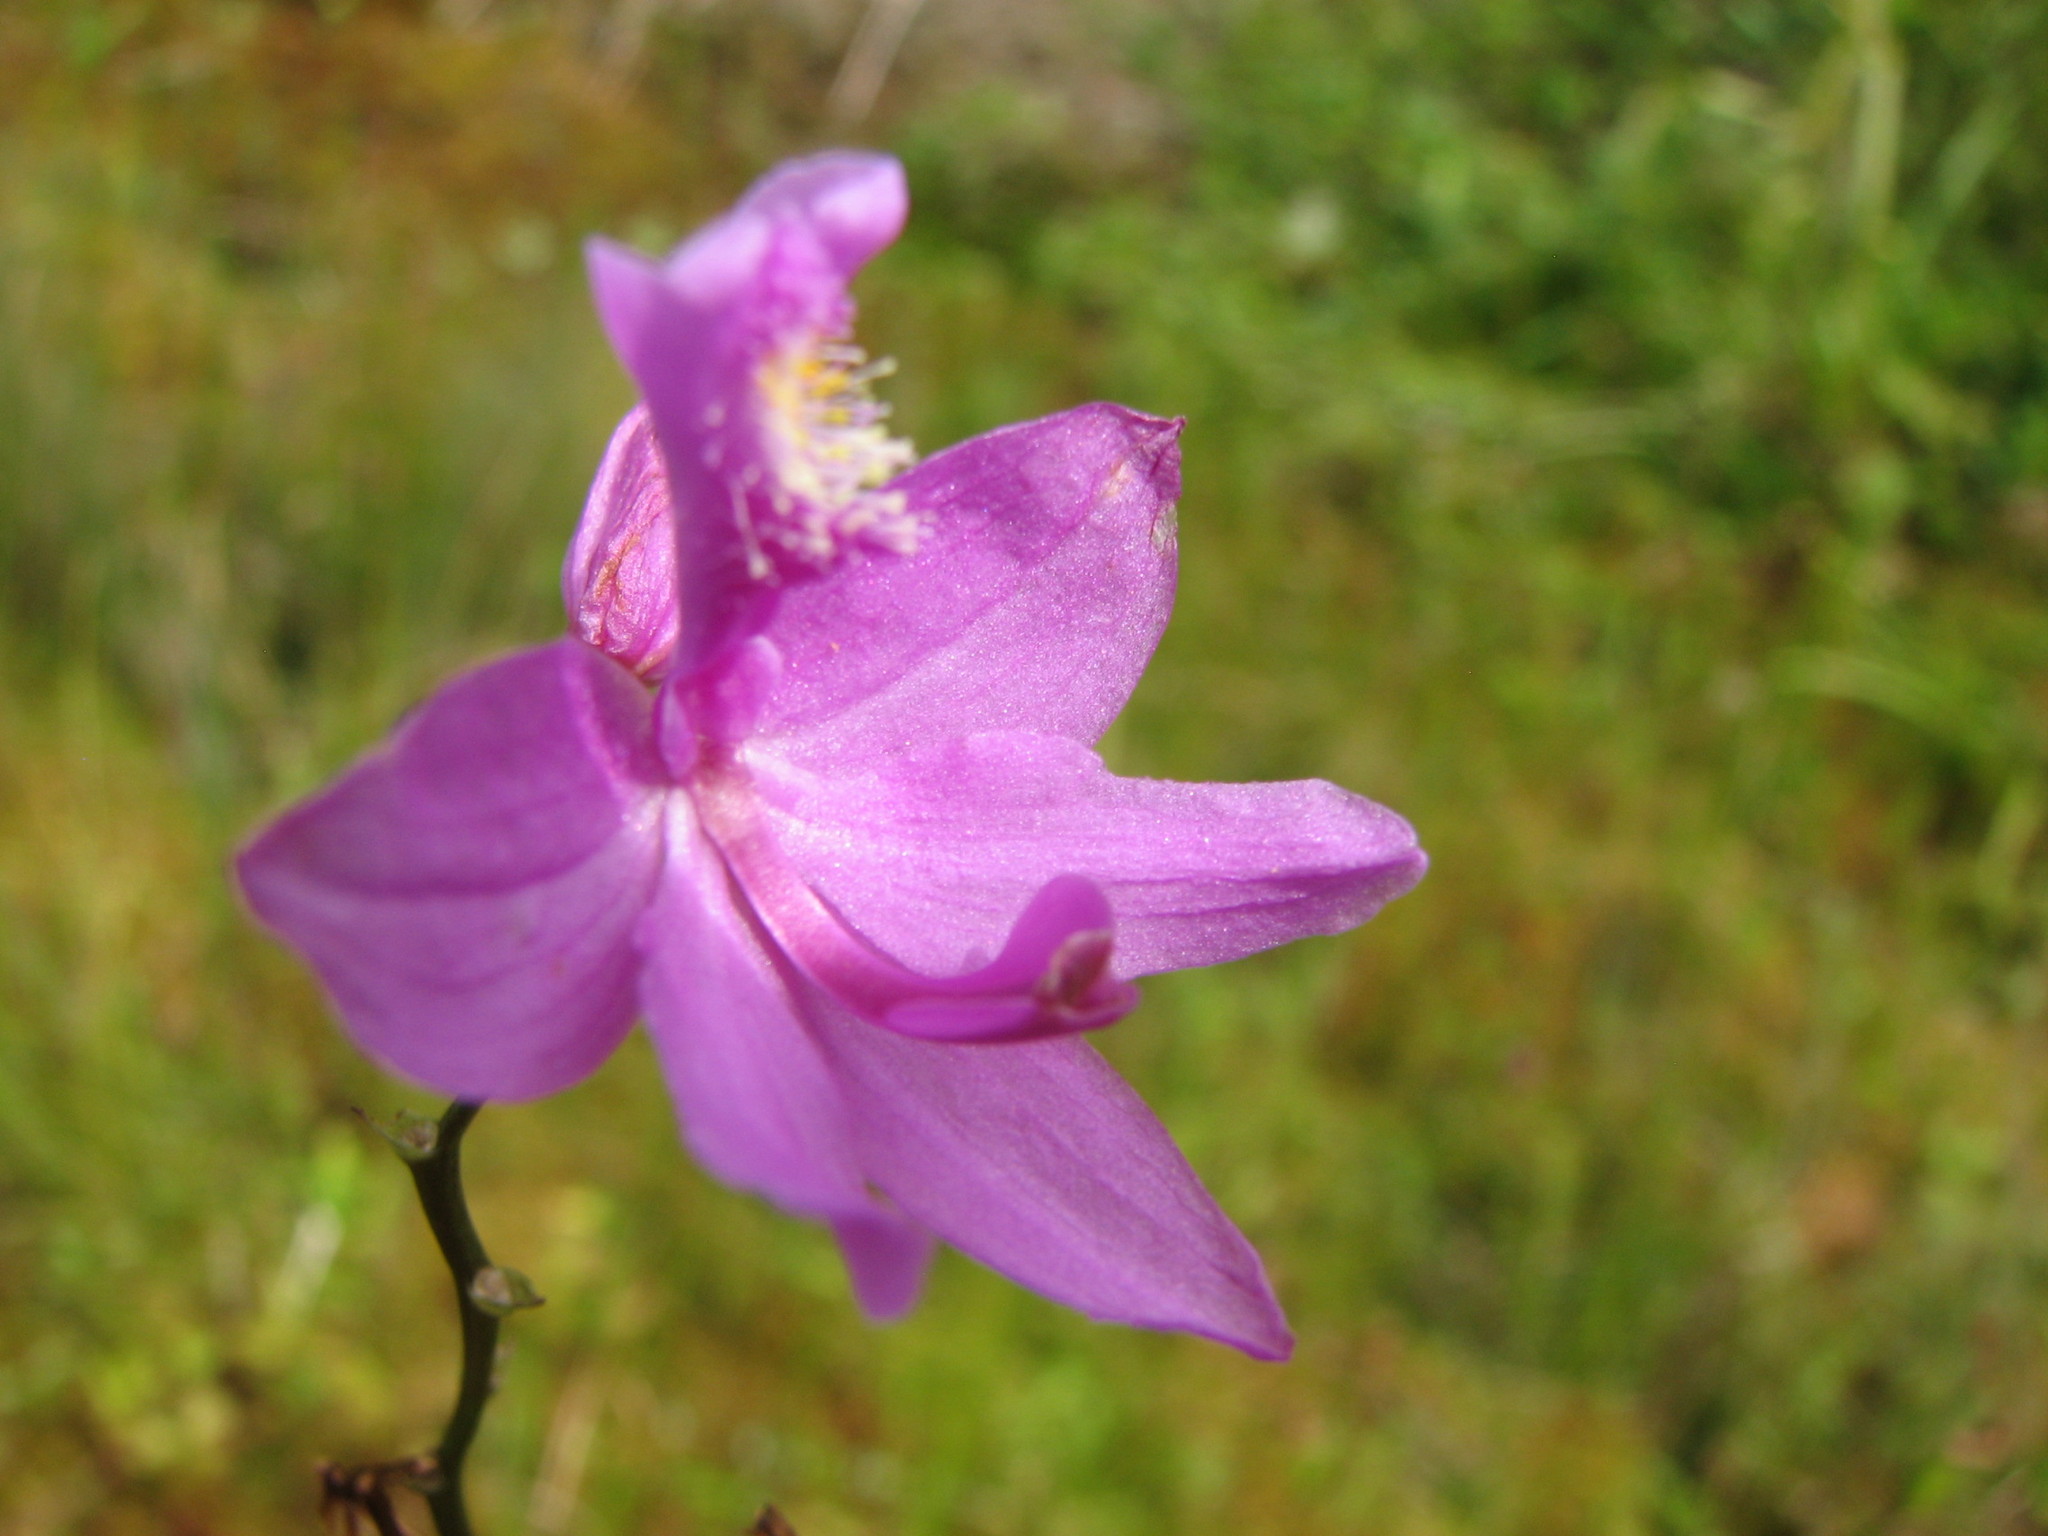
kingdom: Plantae
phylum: Tracheophyta
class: Liliopsida
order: Asparagales
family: Orchidaceae
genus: Calopogon
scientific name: Calopogon tuberosus
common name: Grass-pink
